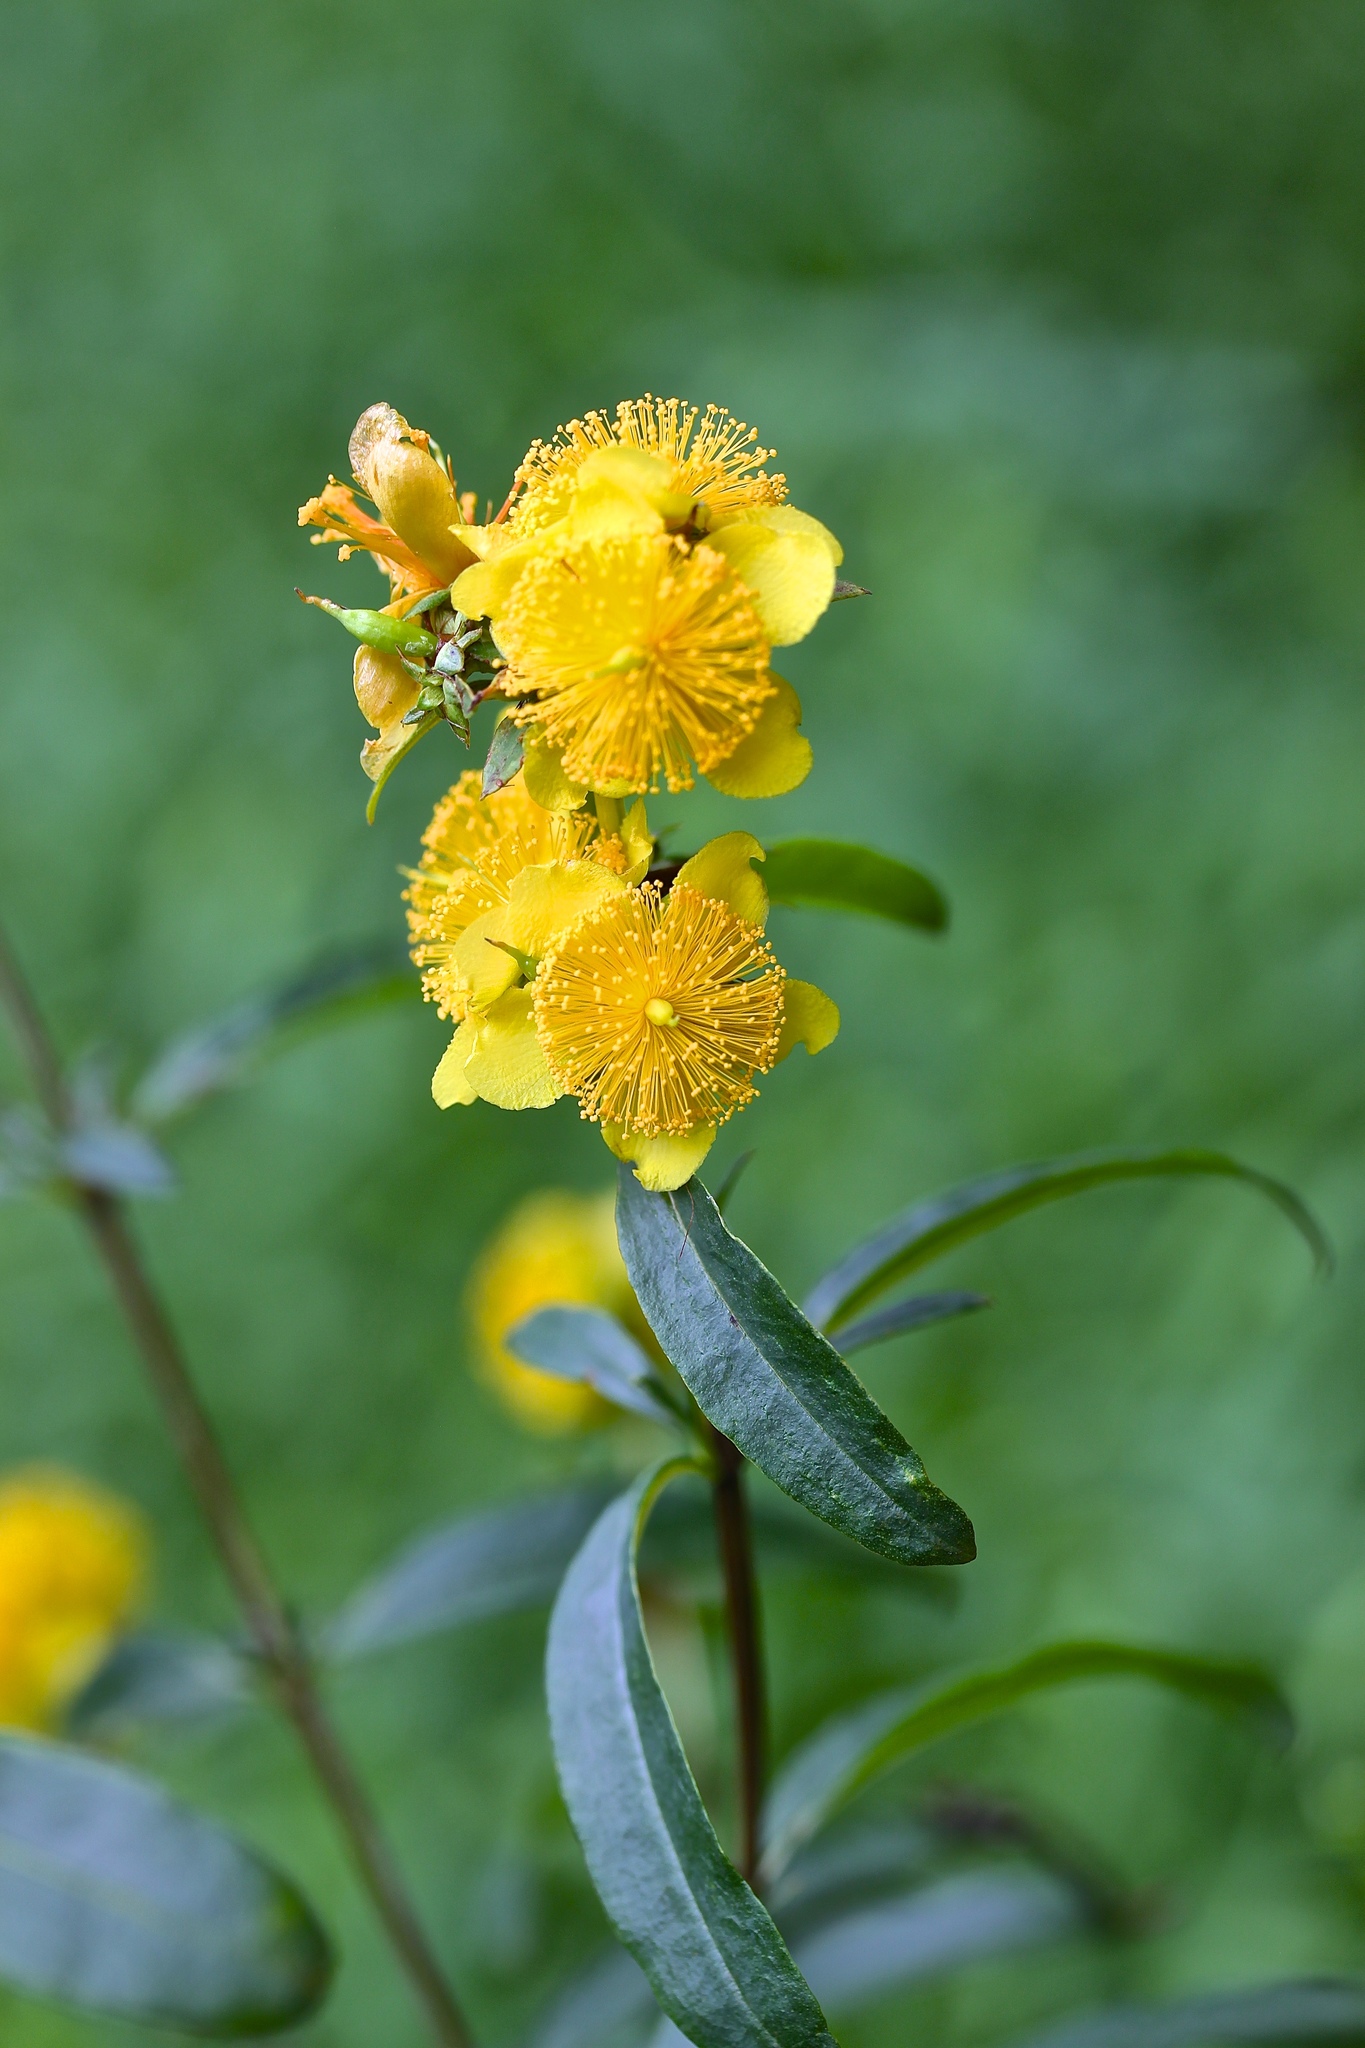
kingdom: Plantae
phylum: Tracheophyta
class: Magnoliopsida
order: Malpighiales
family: Hypericaceae
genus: Hypericum
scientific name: Hypericum prolificum
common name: Shrubby st. john's-wort
